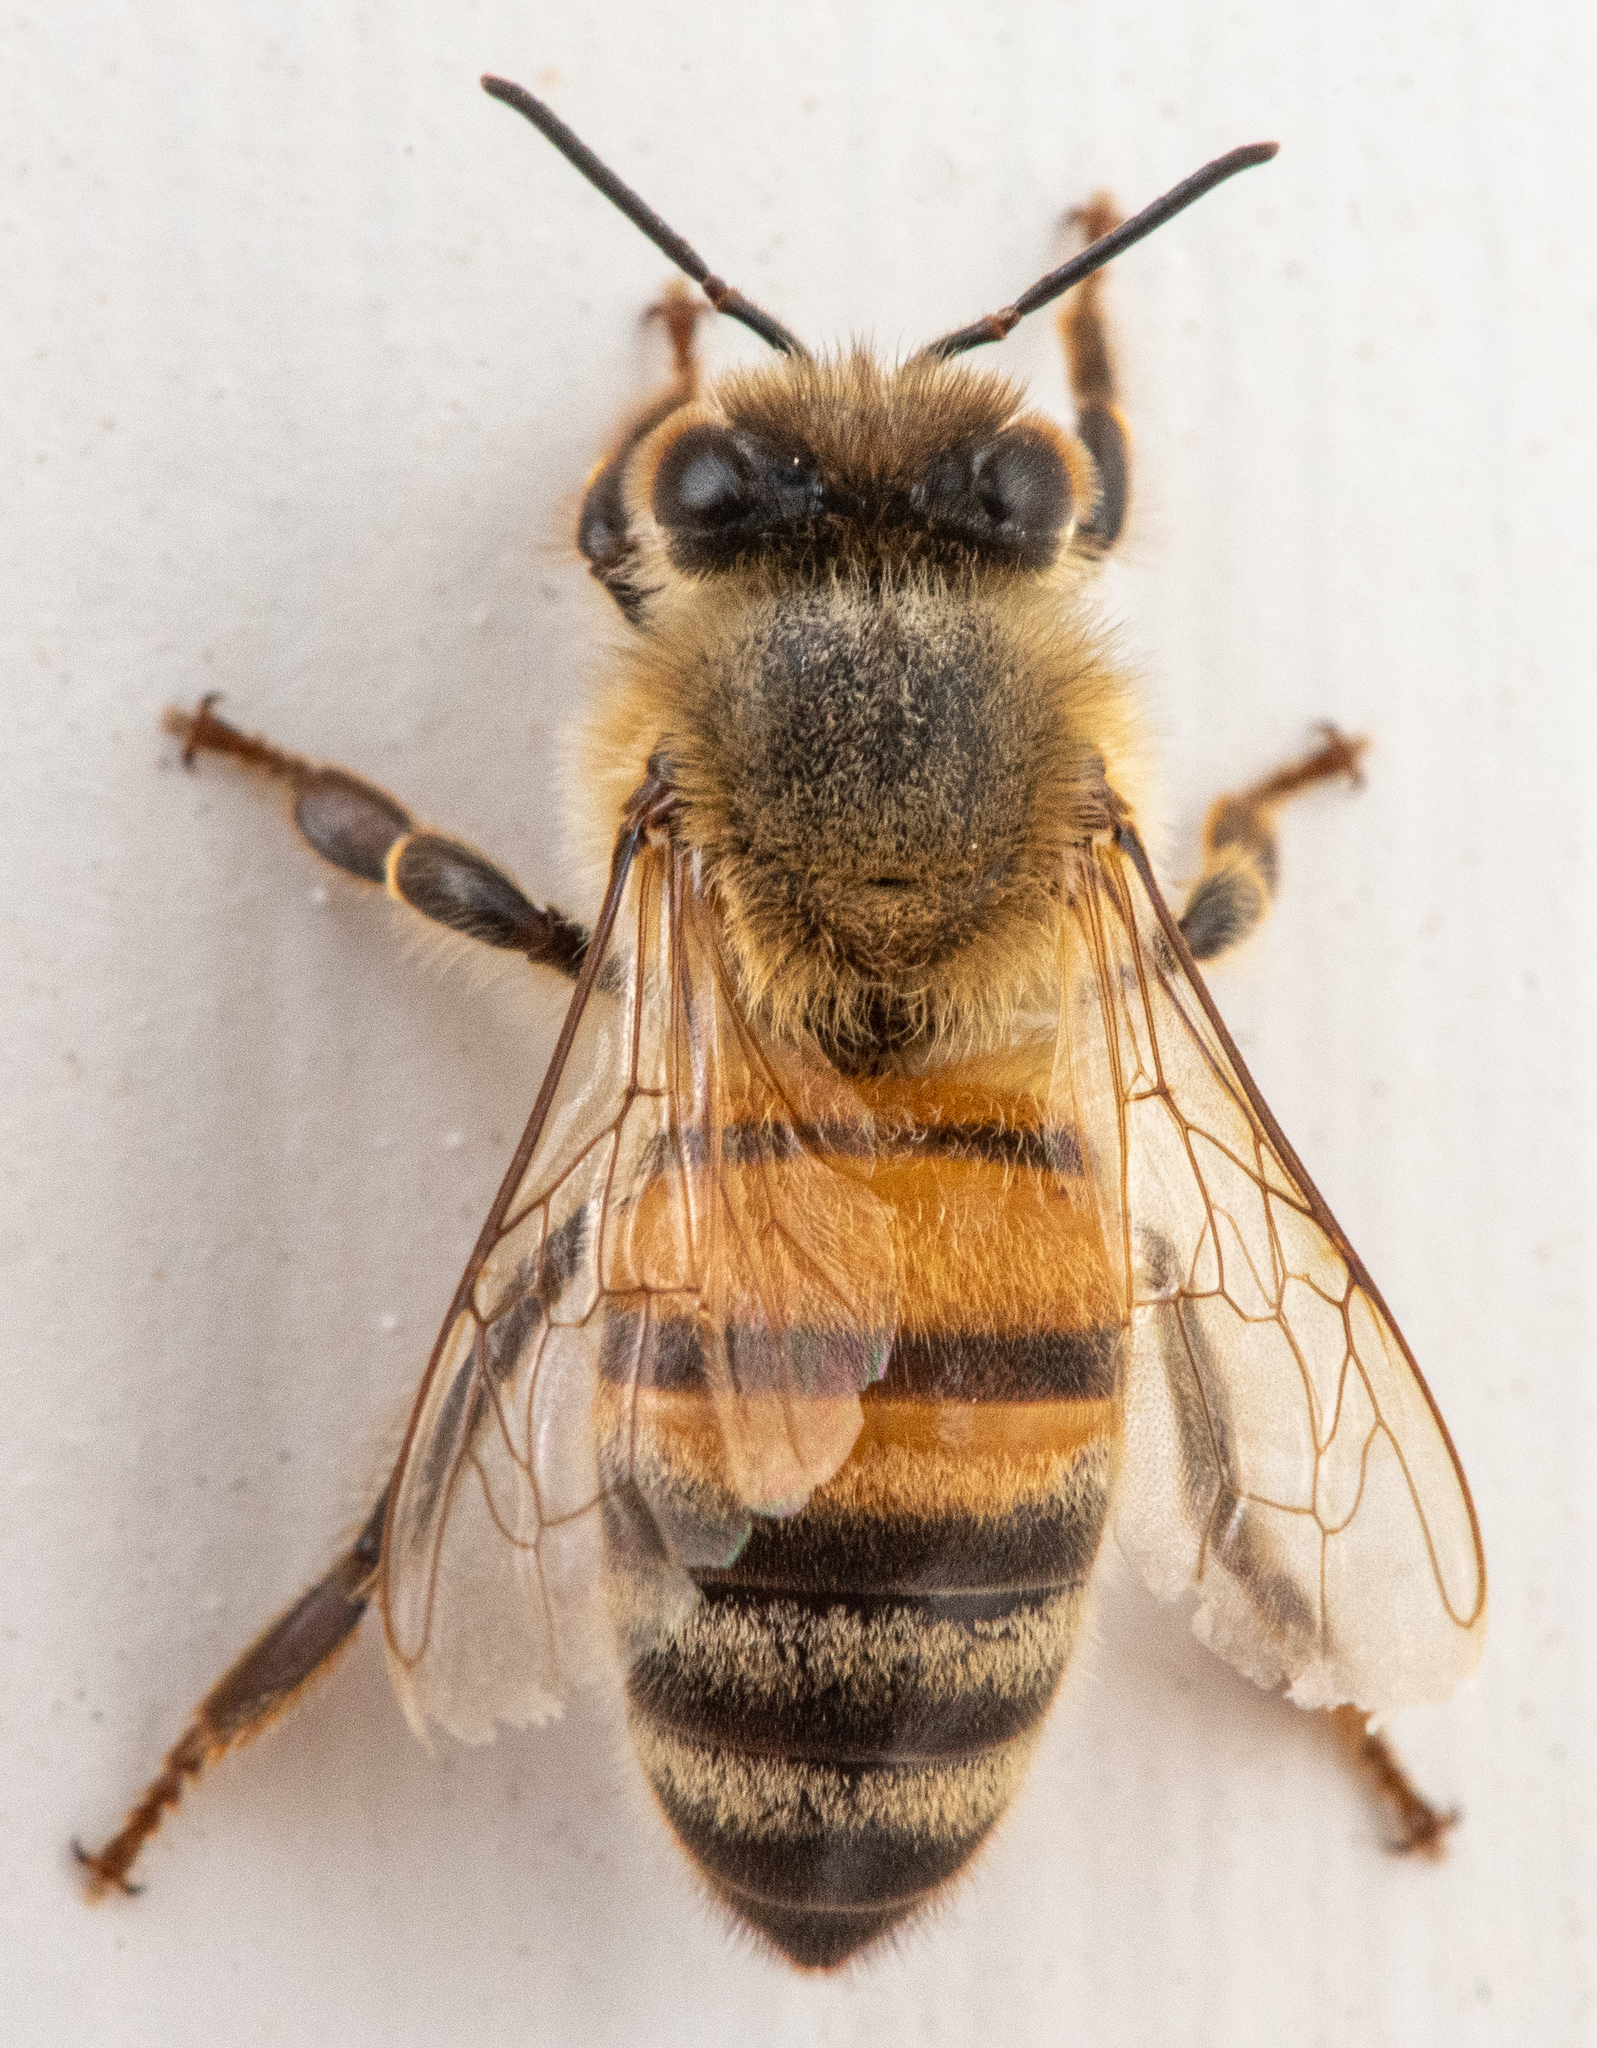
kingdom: Animalia
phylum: Arthropoda
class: Insecta
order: Hymenoptera
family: Apidae
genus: Apis
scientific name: Apis mellifera
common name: Honey bee
